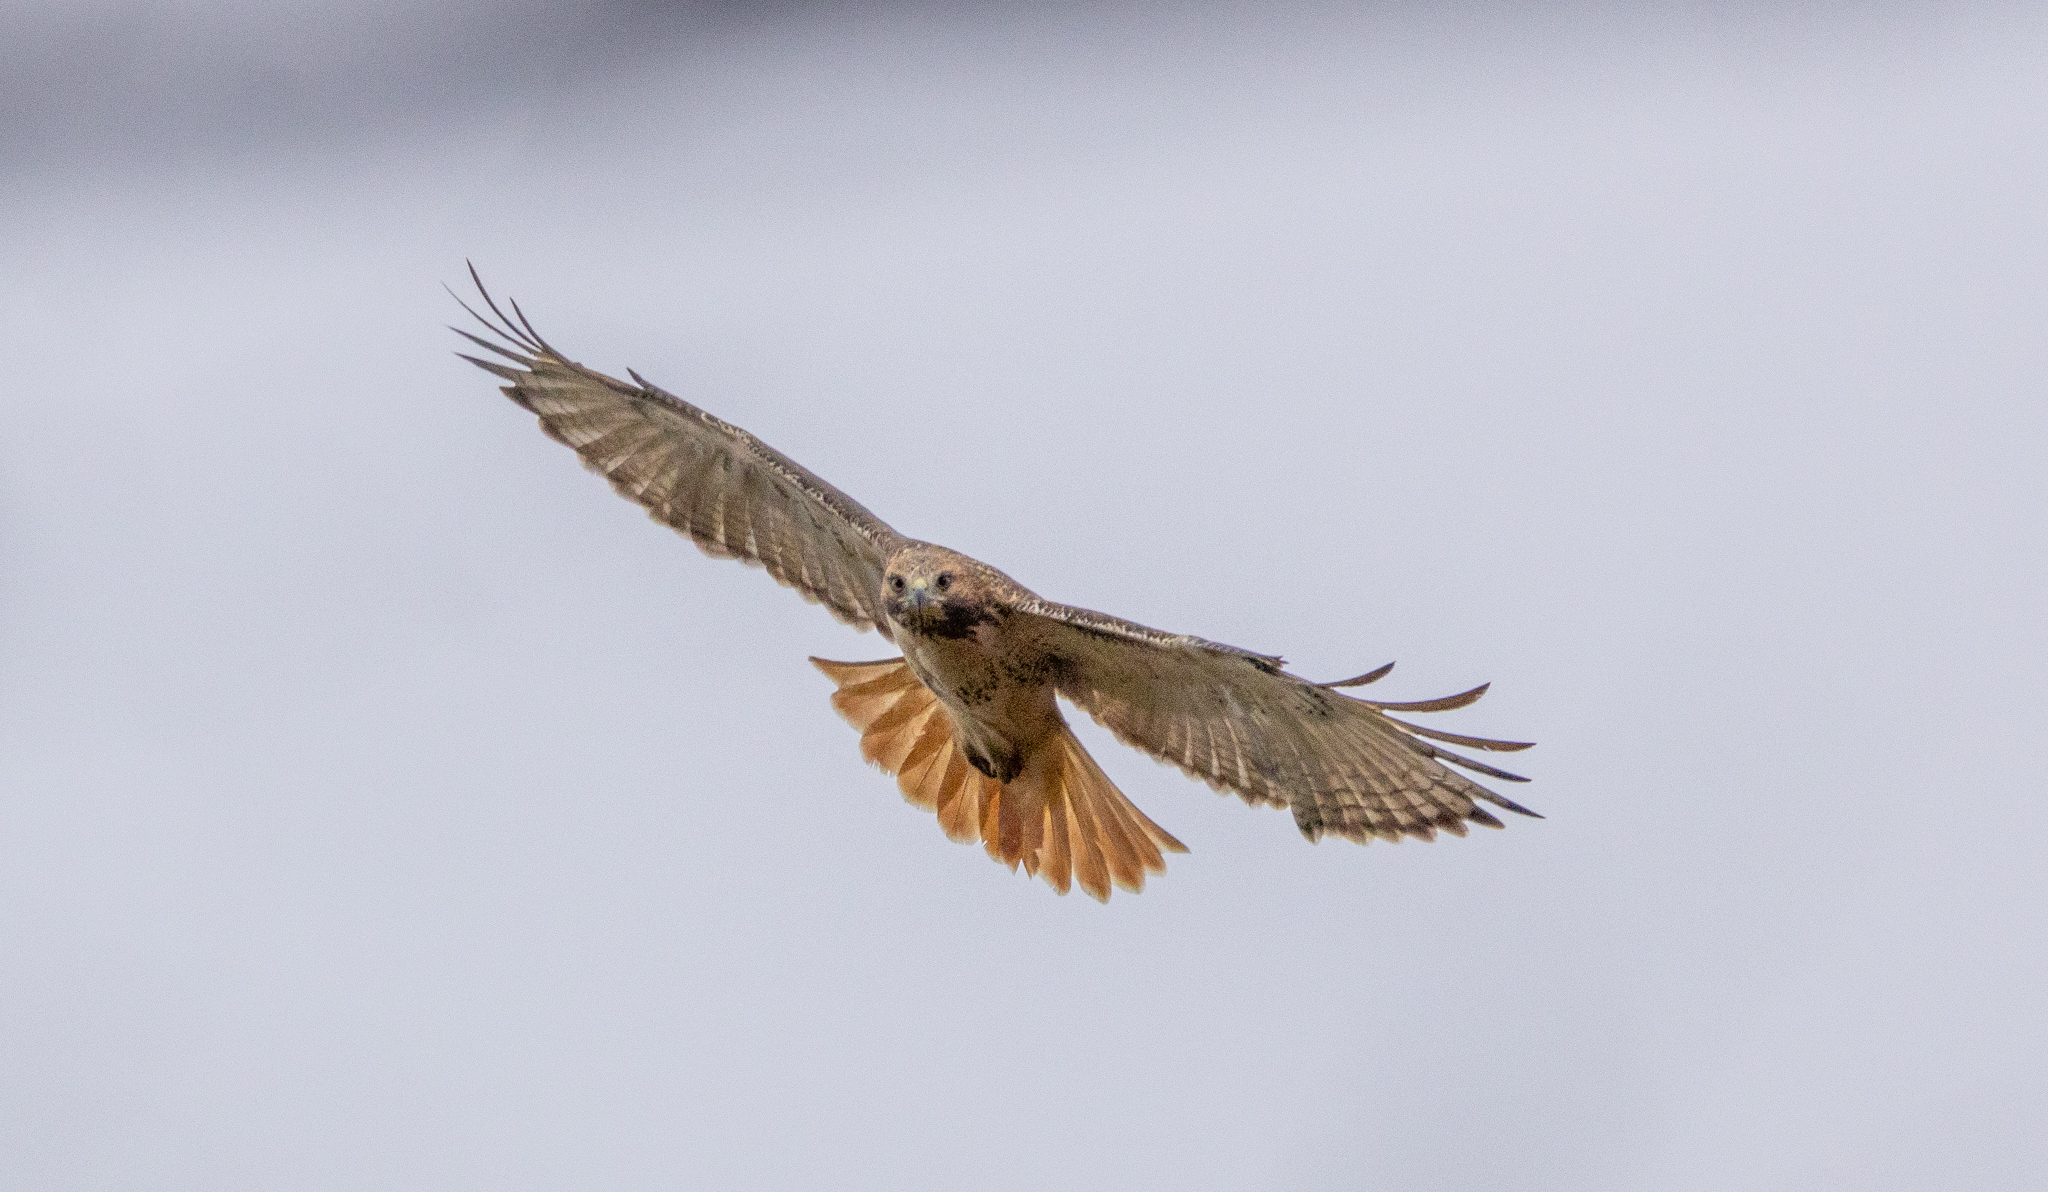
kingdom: Animalia
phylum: Chordata
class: Aves
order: Accipitriformes
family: Accipitridae
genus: Buteo
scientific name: Buteo jamaicensis
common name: Red-tailed hawk
